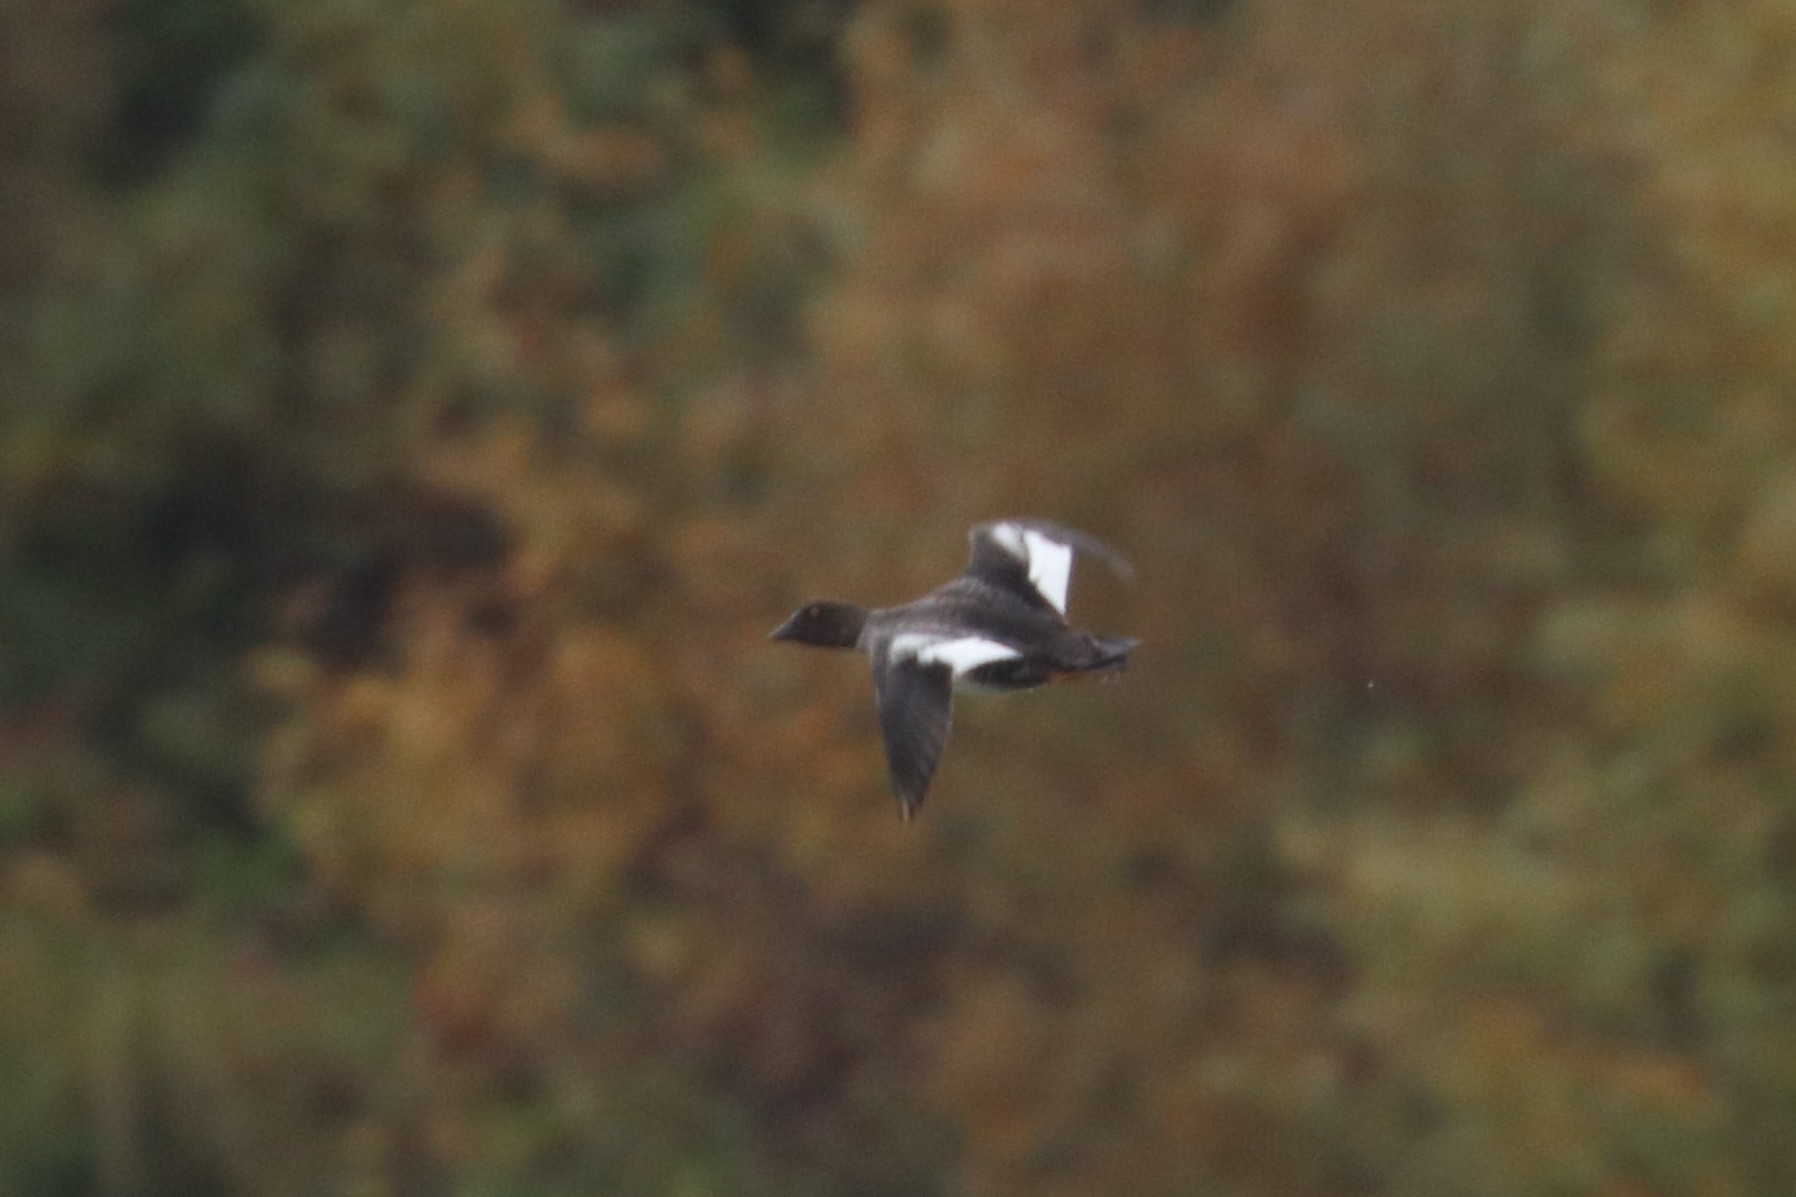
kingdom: Animalia
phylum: Chordata
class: Aves
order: Anseriformes
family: Anatidae
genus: Bucephala
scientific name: Bucephala clangula
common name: Common goldeneye
